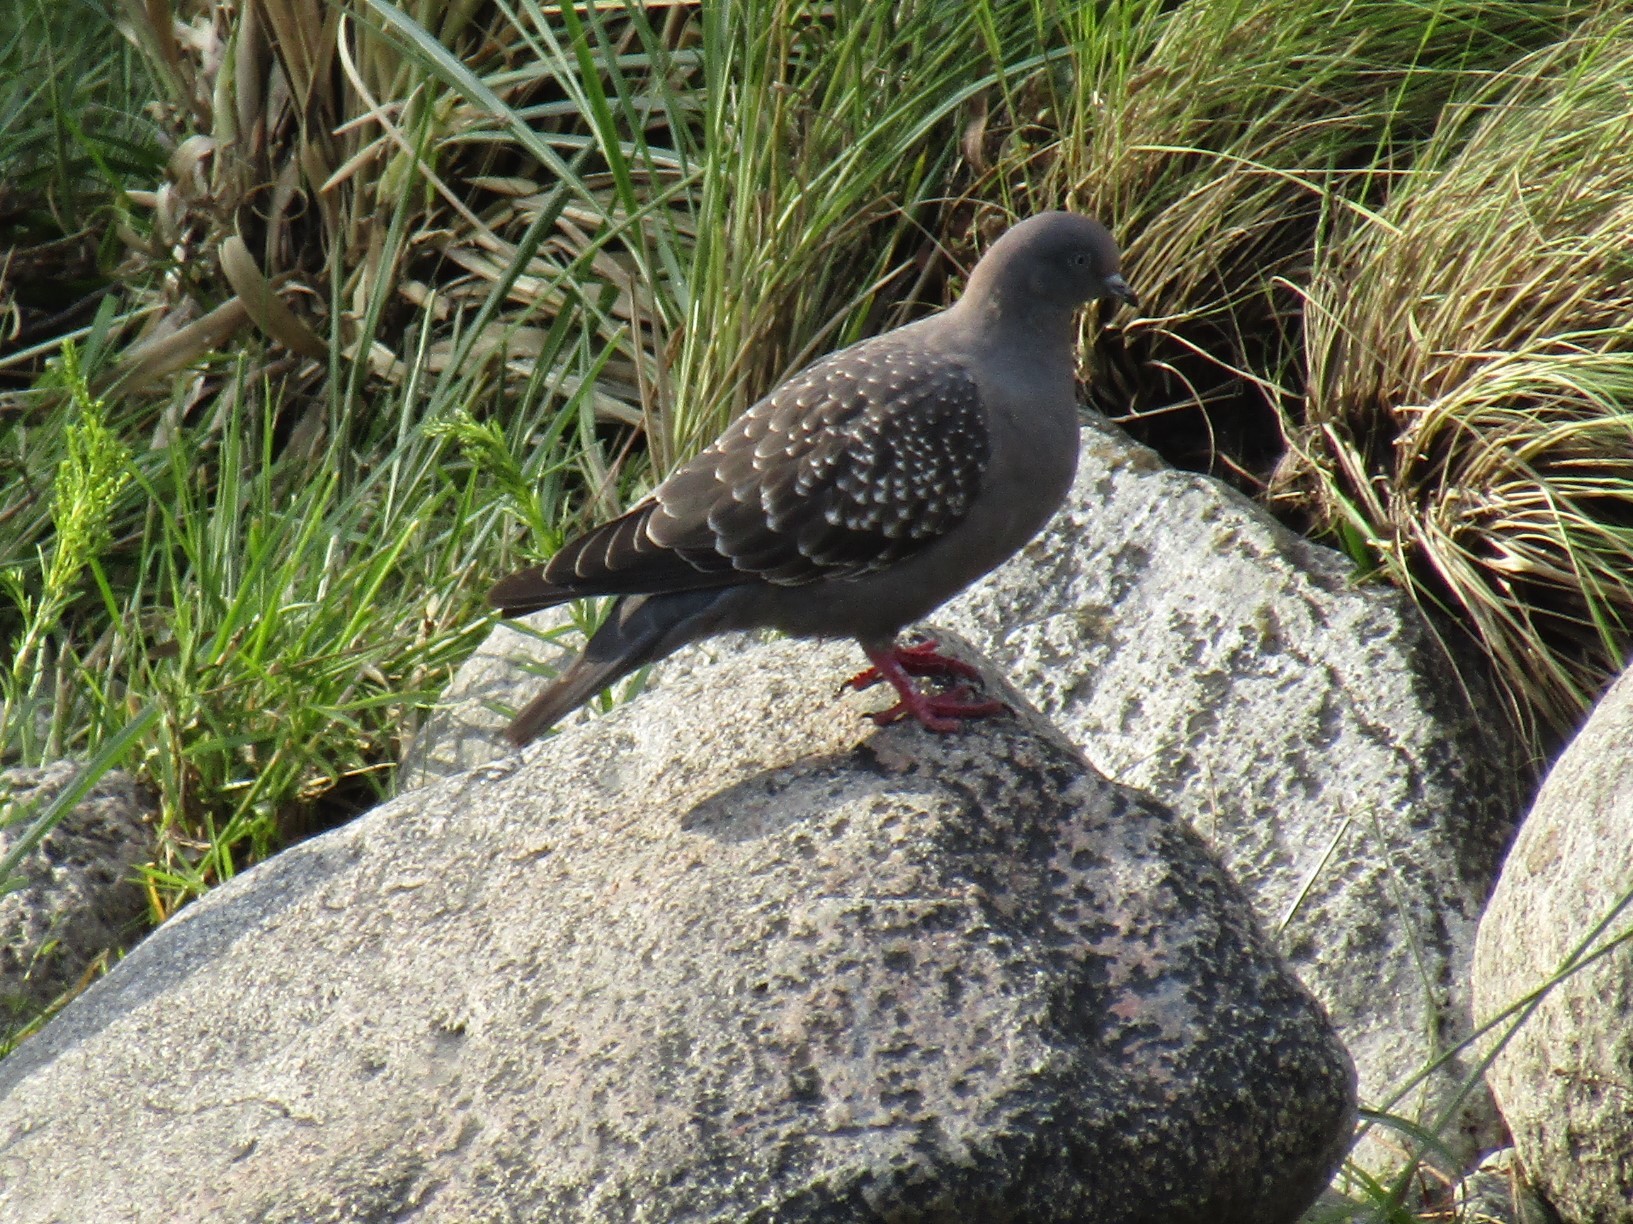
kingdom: Animalia
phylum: Chordata
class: Aves
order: Columbiformes
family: Columbidae
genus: Patagioenas
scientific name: Patagioenas maculosa
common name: Spot-winged pigeon
